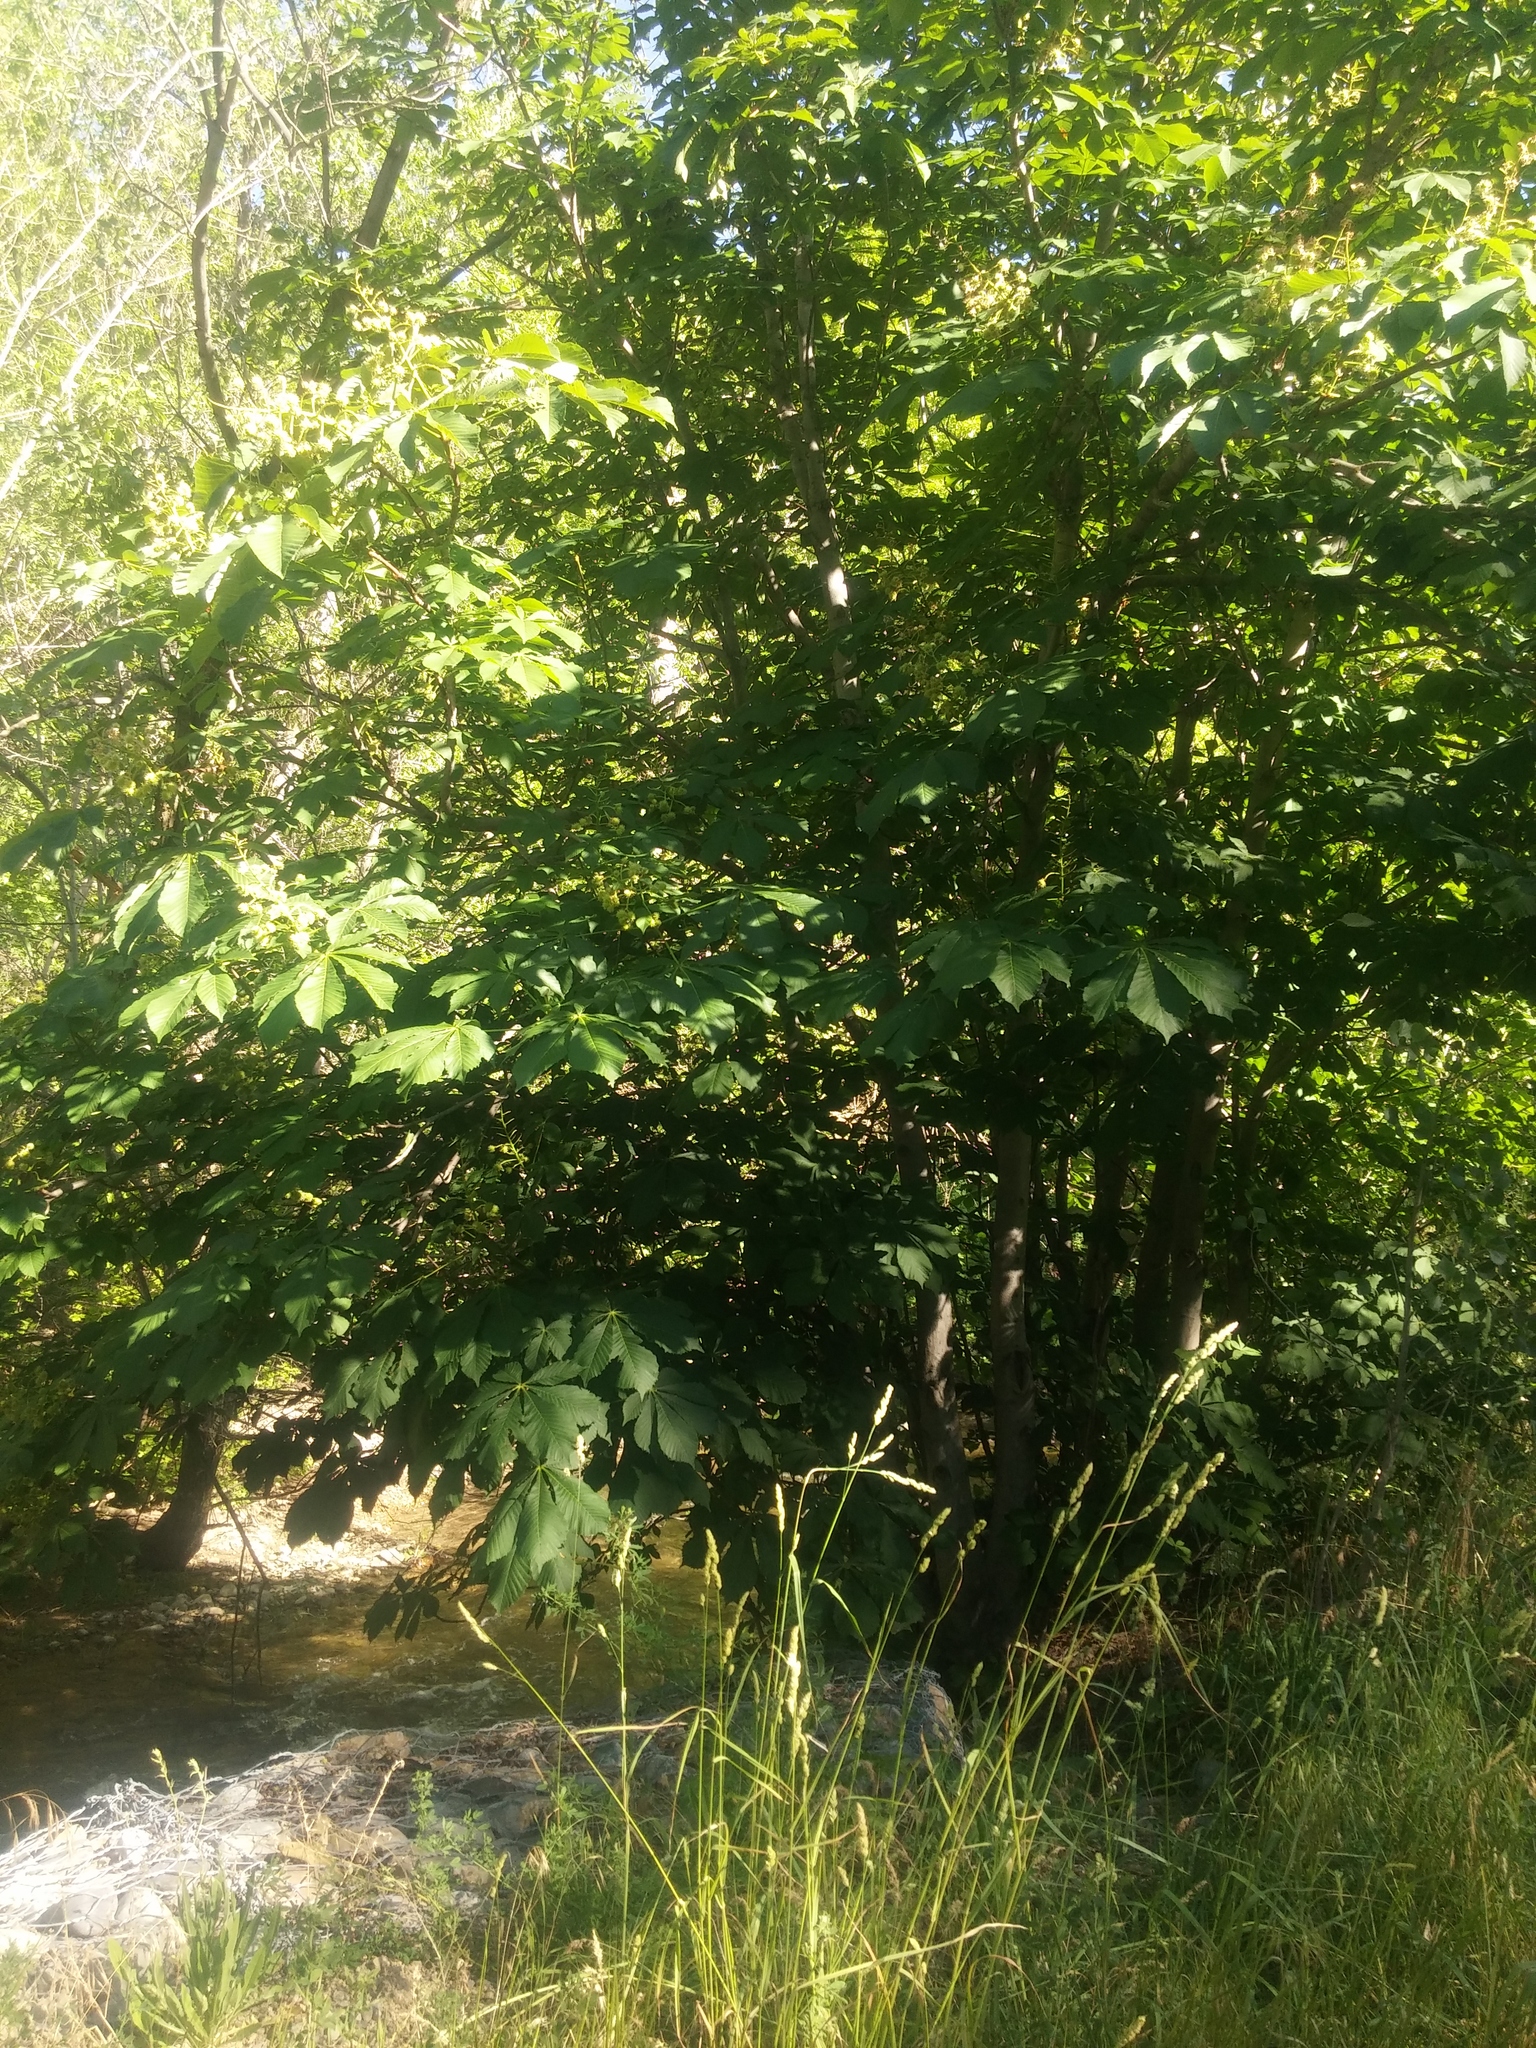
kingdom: Plantae
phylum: Tracheophyta
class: Magnoliopsida
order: Sapindales
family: Sapindaceae
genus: Aesculus
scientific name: Aesculus hippocastanum
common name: Horse-chestnut
